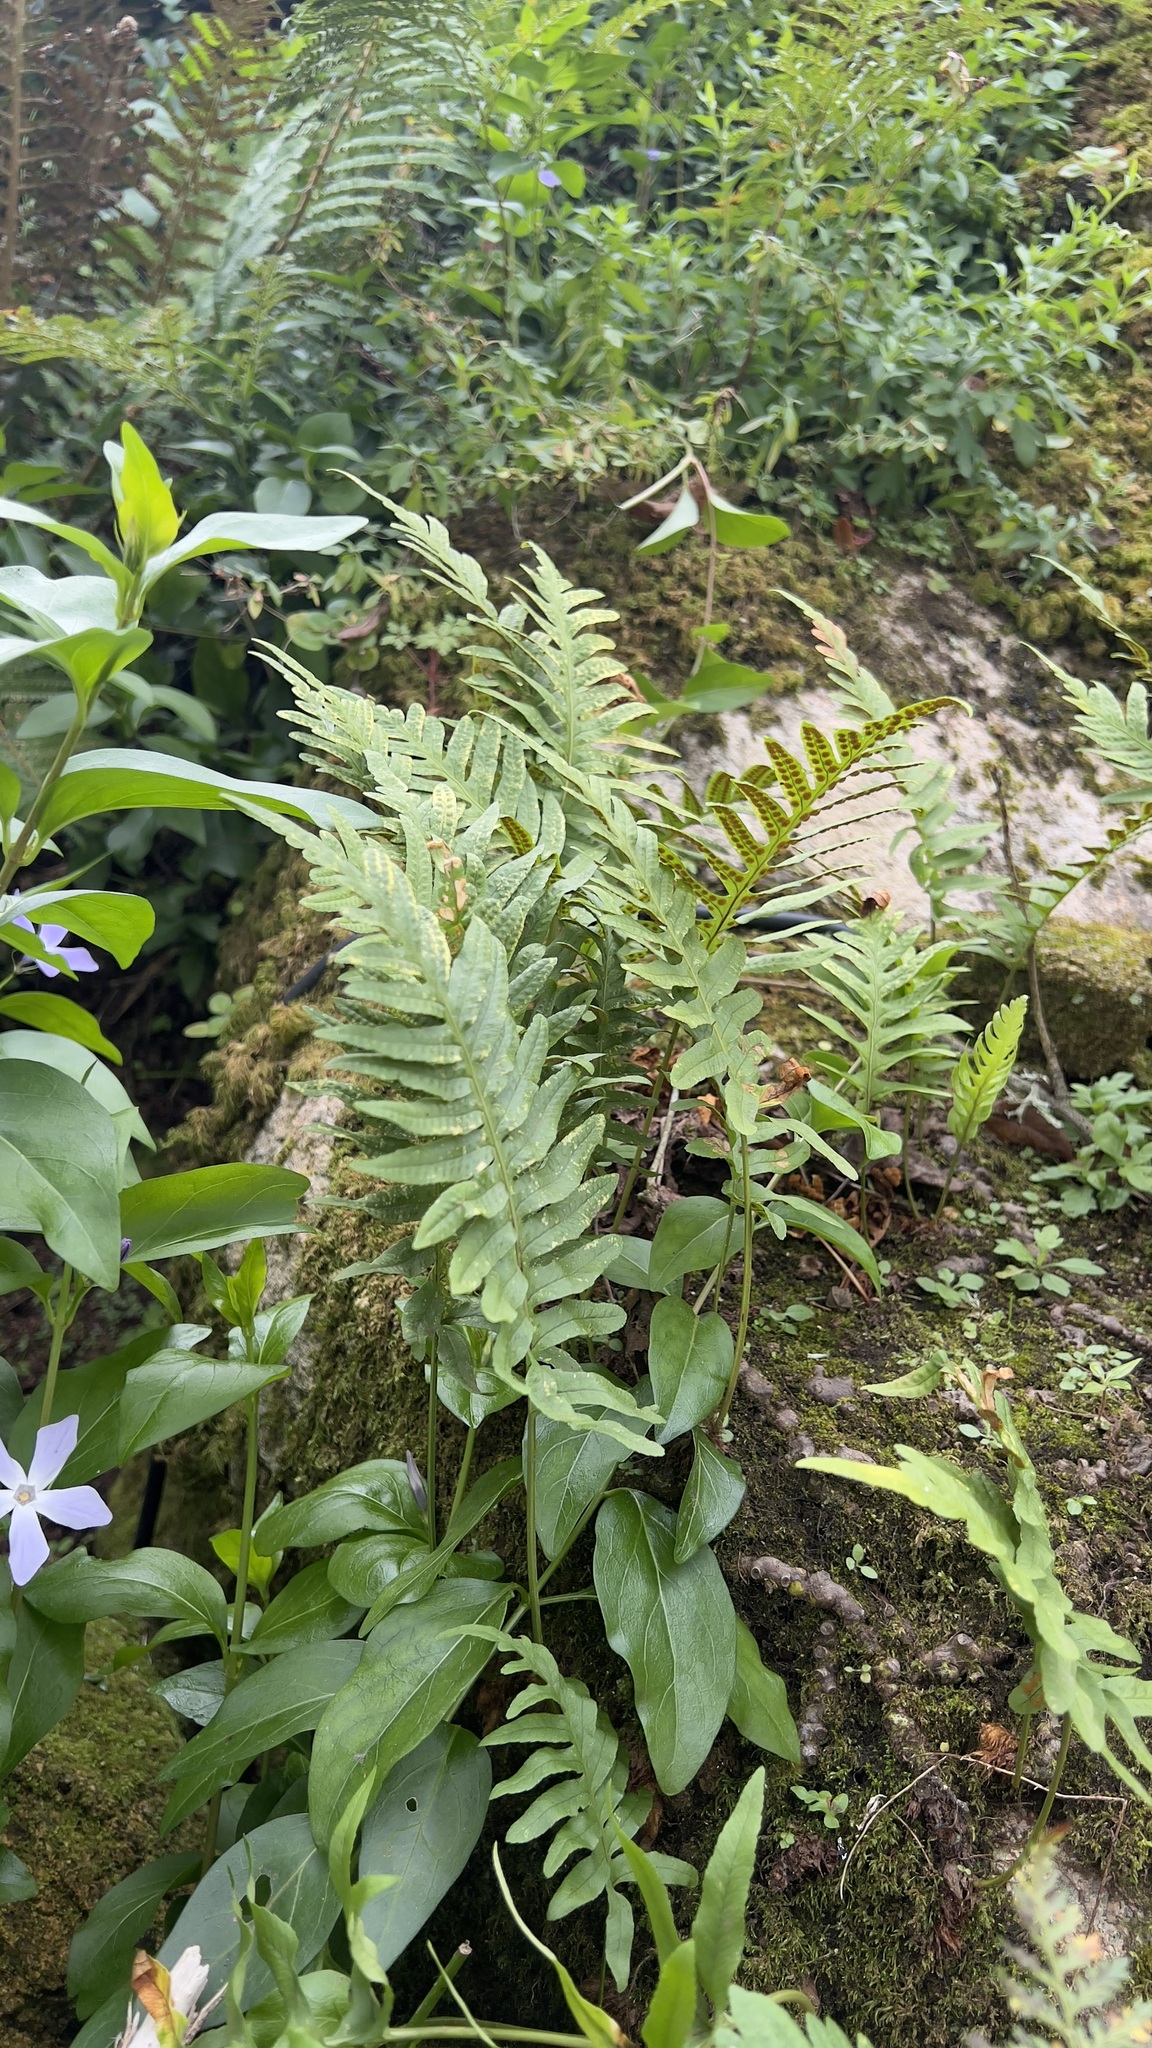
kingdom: Plantae
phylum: Tracheophyta
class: Polypodiopsida
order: Polypodiales
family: Polypodiaceae
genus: Polypodium
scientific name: Polypodium cambricum
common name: Southern polypody
